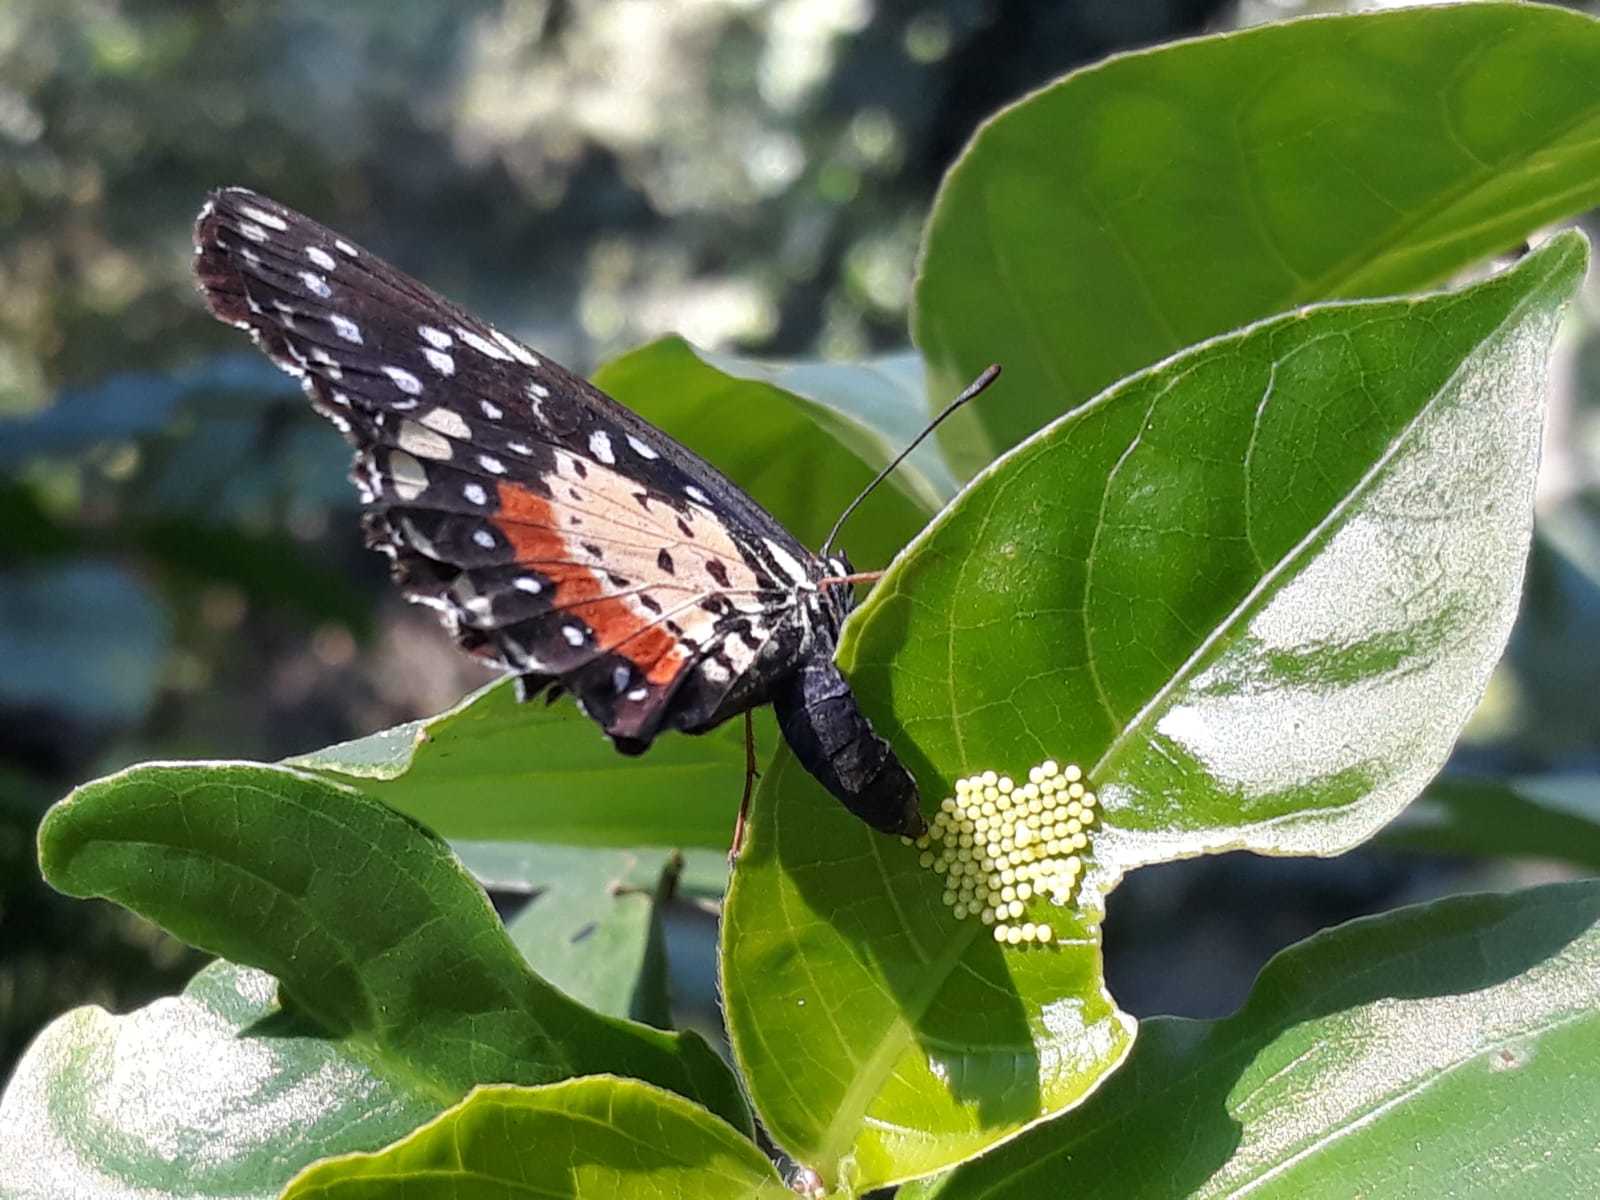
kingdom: Animalia
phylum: Arthropoda
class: Insecta
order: Lepidoptera
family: Nymphalidae
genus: Chlosyne
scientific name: Chlosyne janais
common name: Crimson patch
